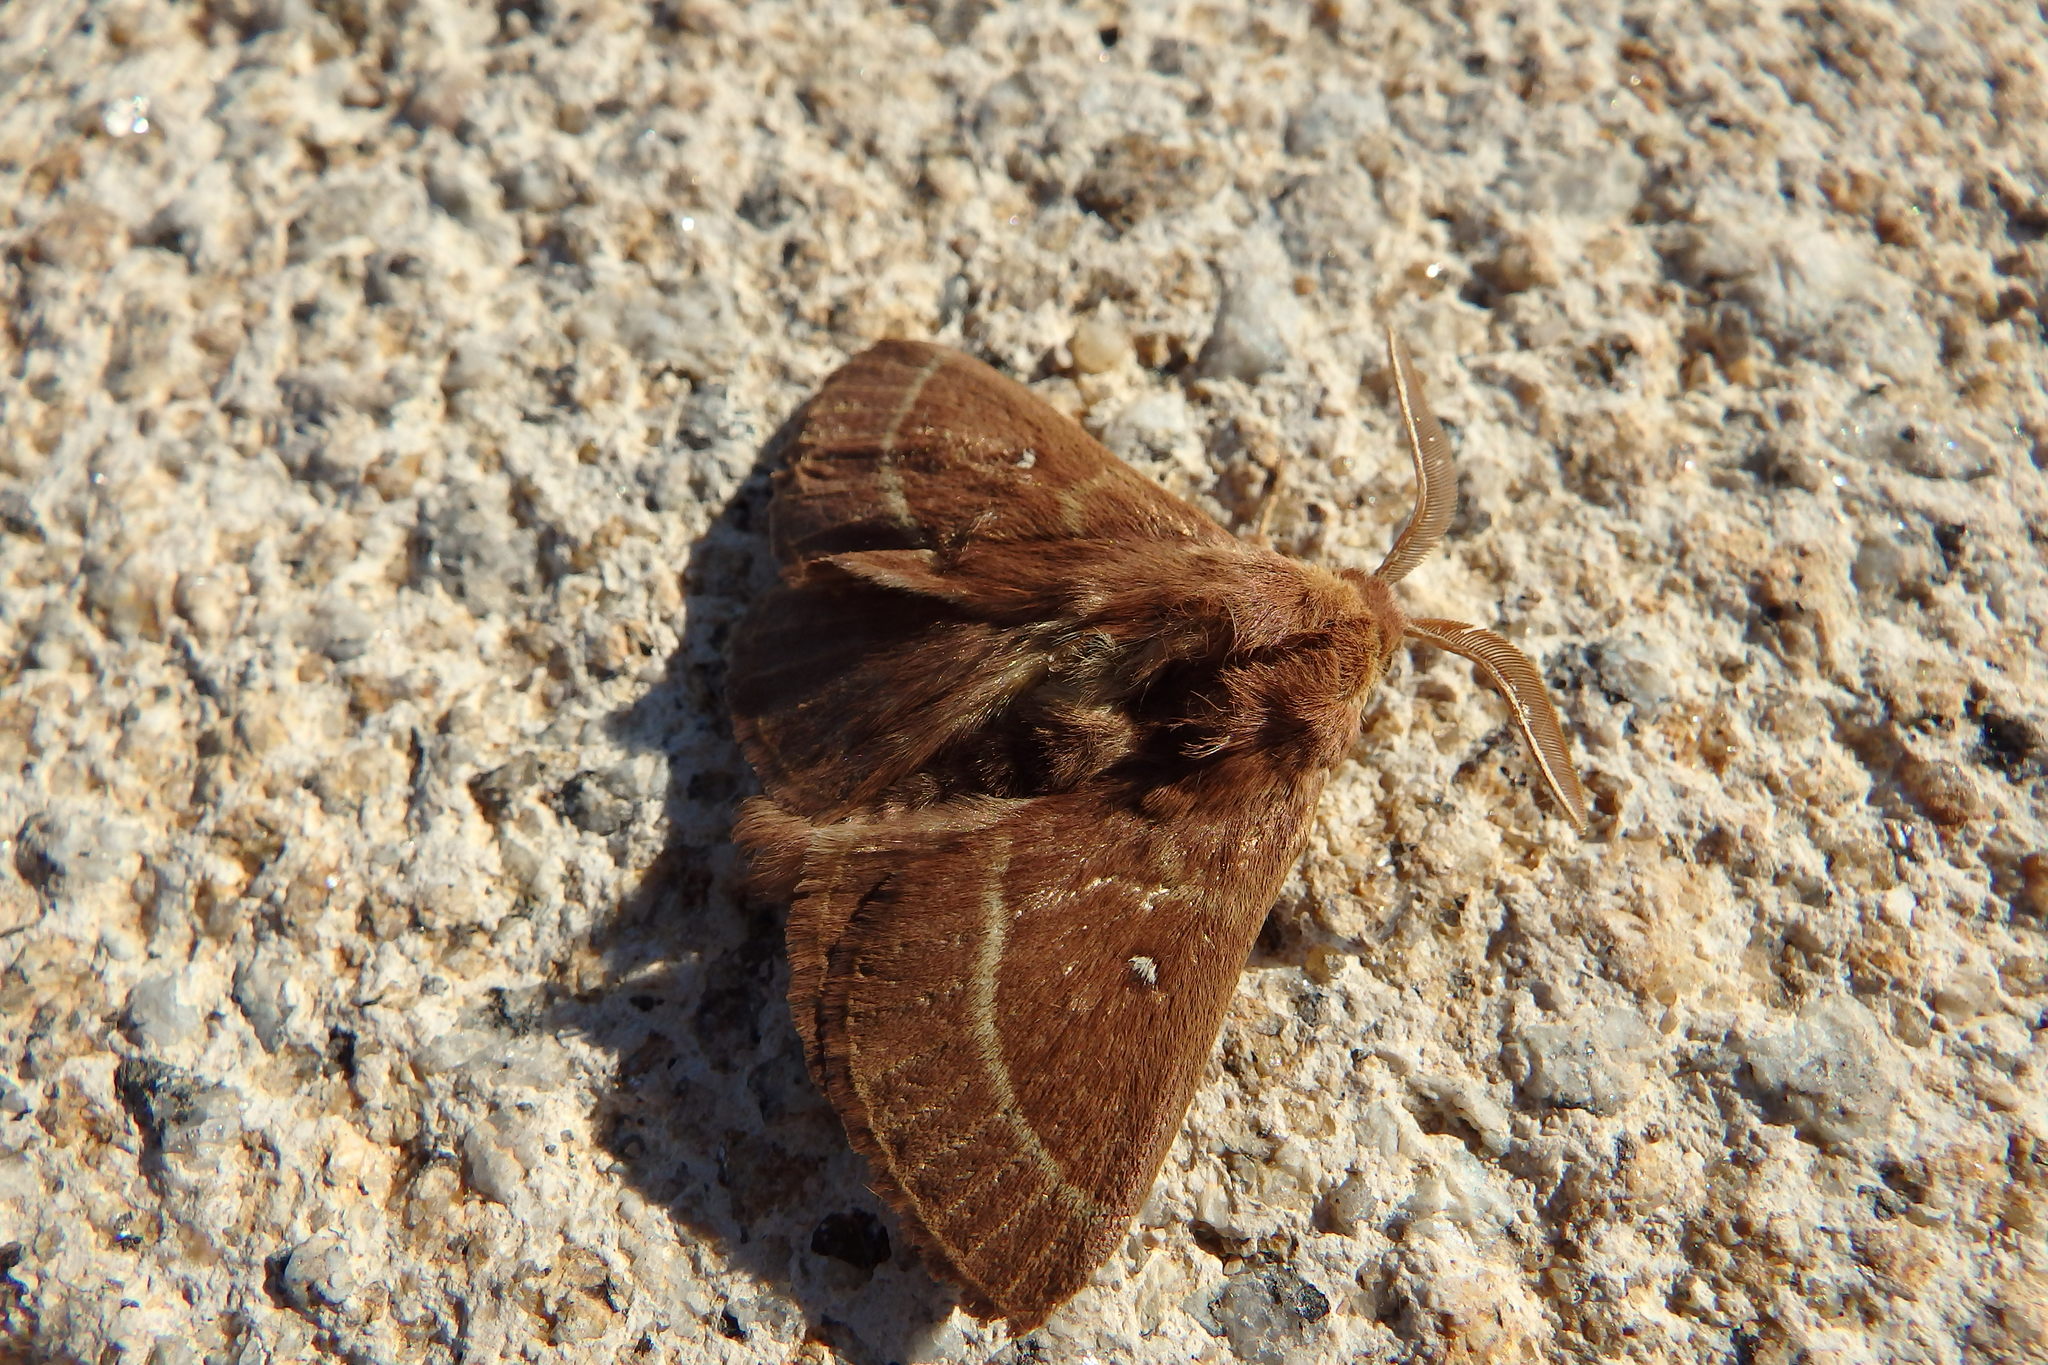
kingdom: Animalia
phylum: Arthropoda
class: Insecta
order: Lepidoptera
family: Lasiocampidae
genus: Lasiocampa
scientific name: Lasiocampa trifolii
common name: Grass eggar
